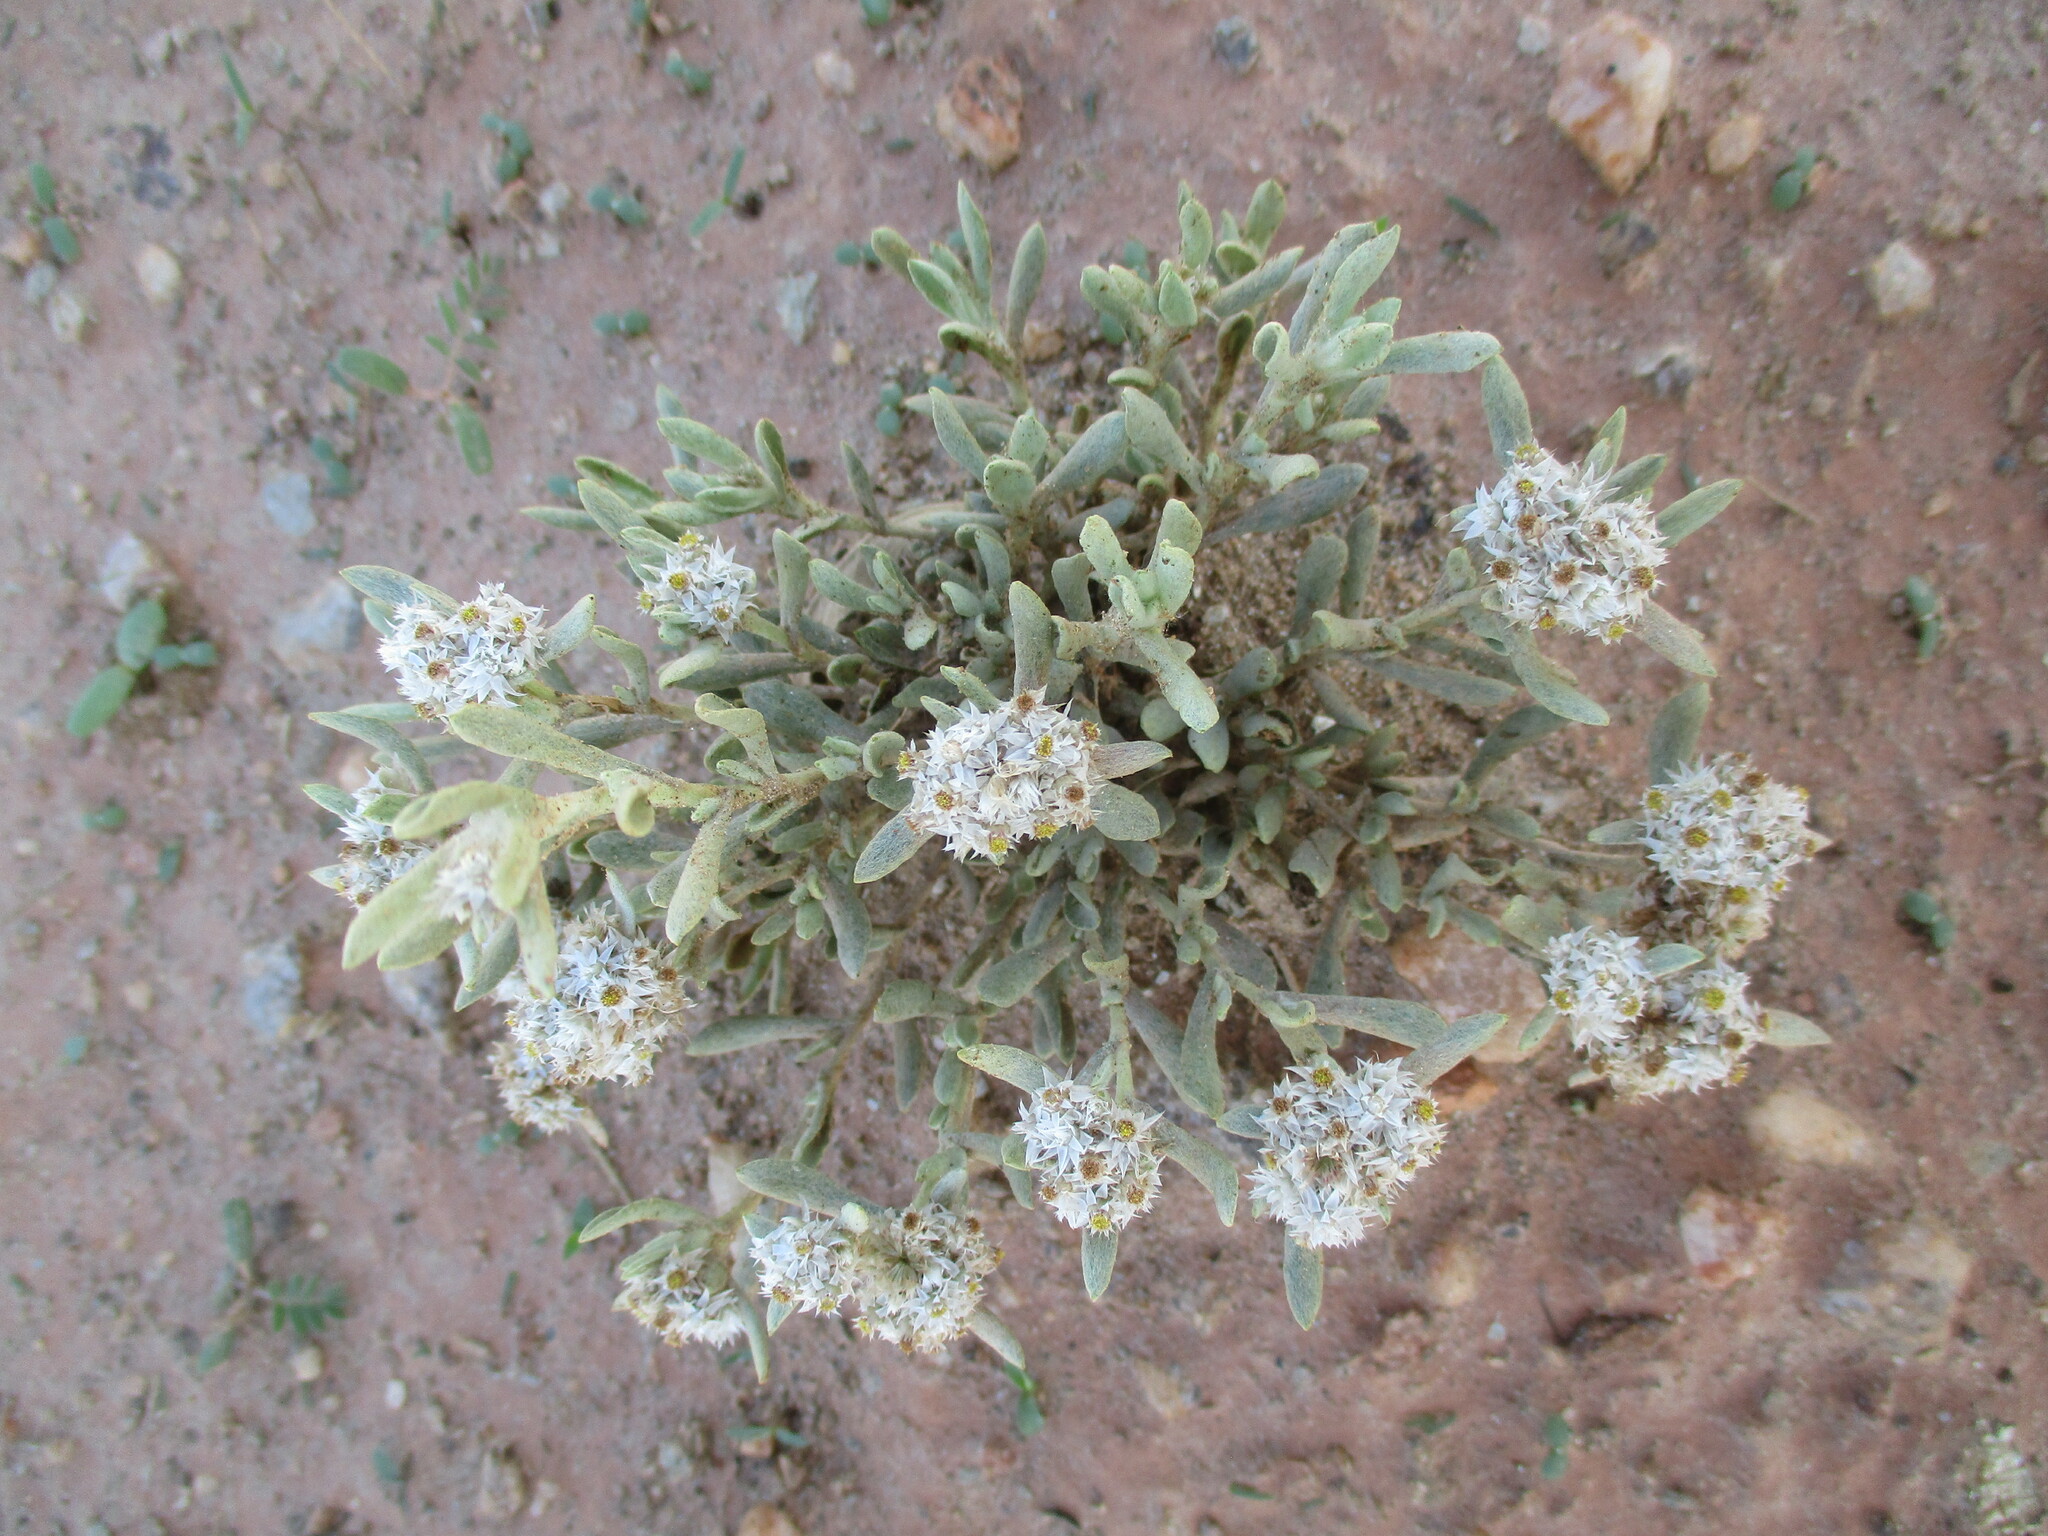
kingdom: Plantae
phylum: Tracheophyta
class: Magnoliopsida
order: Asterales
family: Asteraceae
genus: Helichrysum
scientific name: Helichrysum candolleanum
